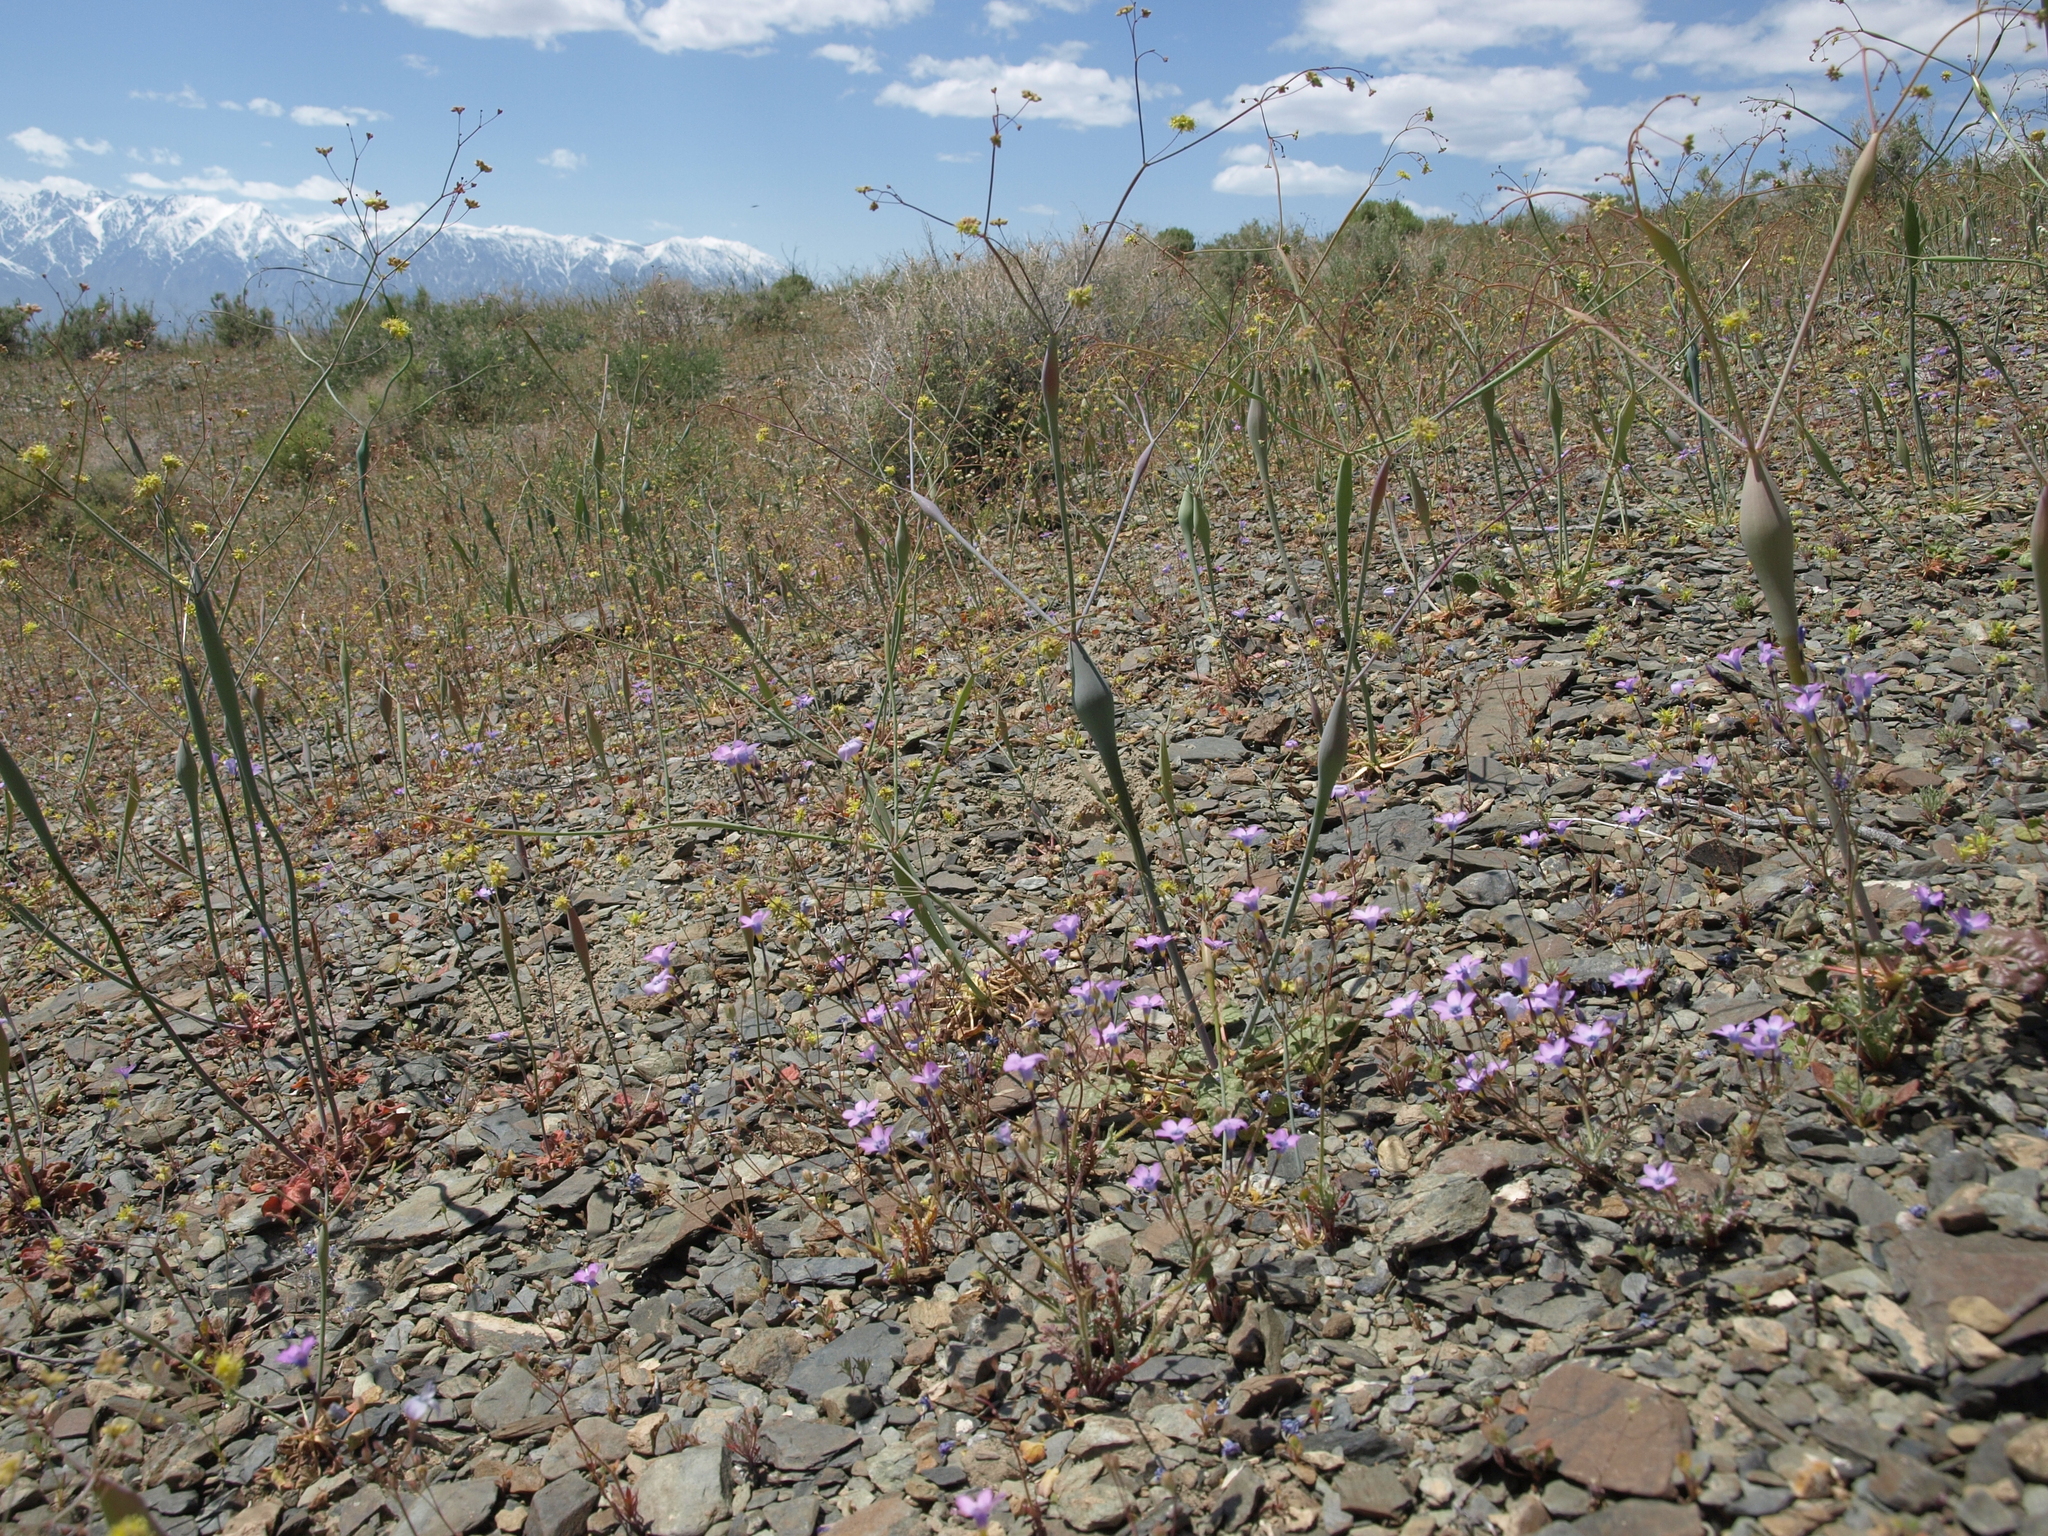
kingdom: Plantae
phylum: Tracheophyta
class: Magnoliopsida
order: Caryophyllales
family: Polygonaceae
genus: Eriogonum
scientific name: Eriogonum inflatum
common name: Desert trumpet
